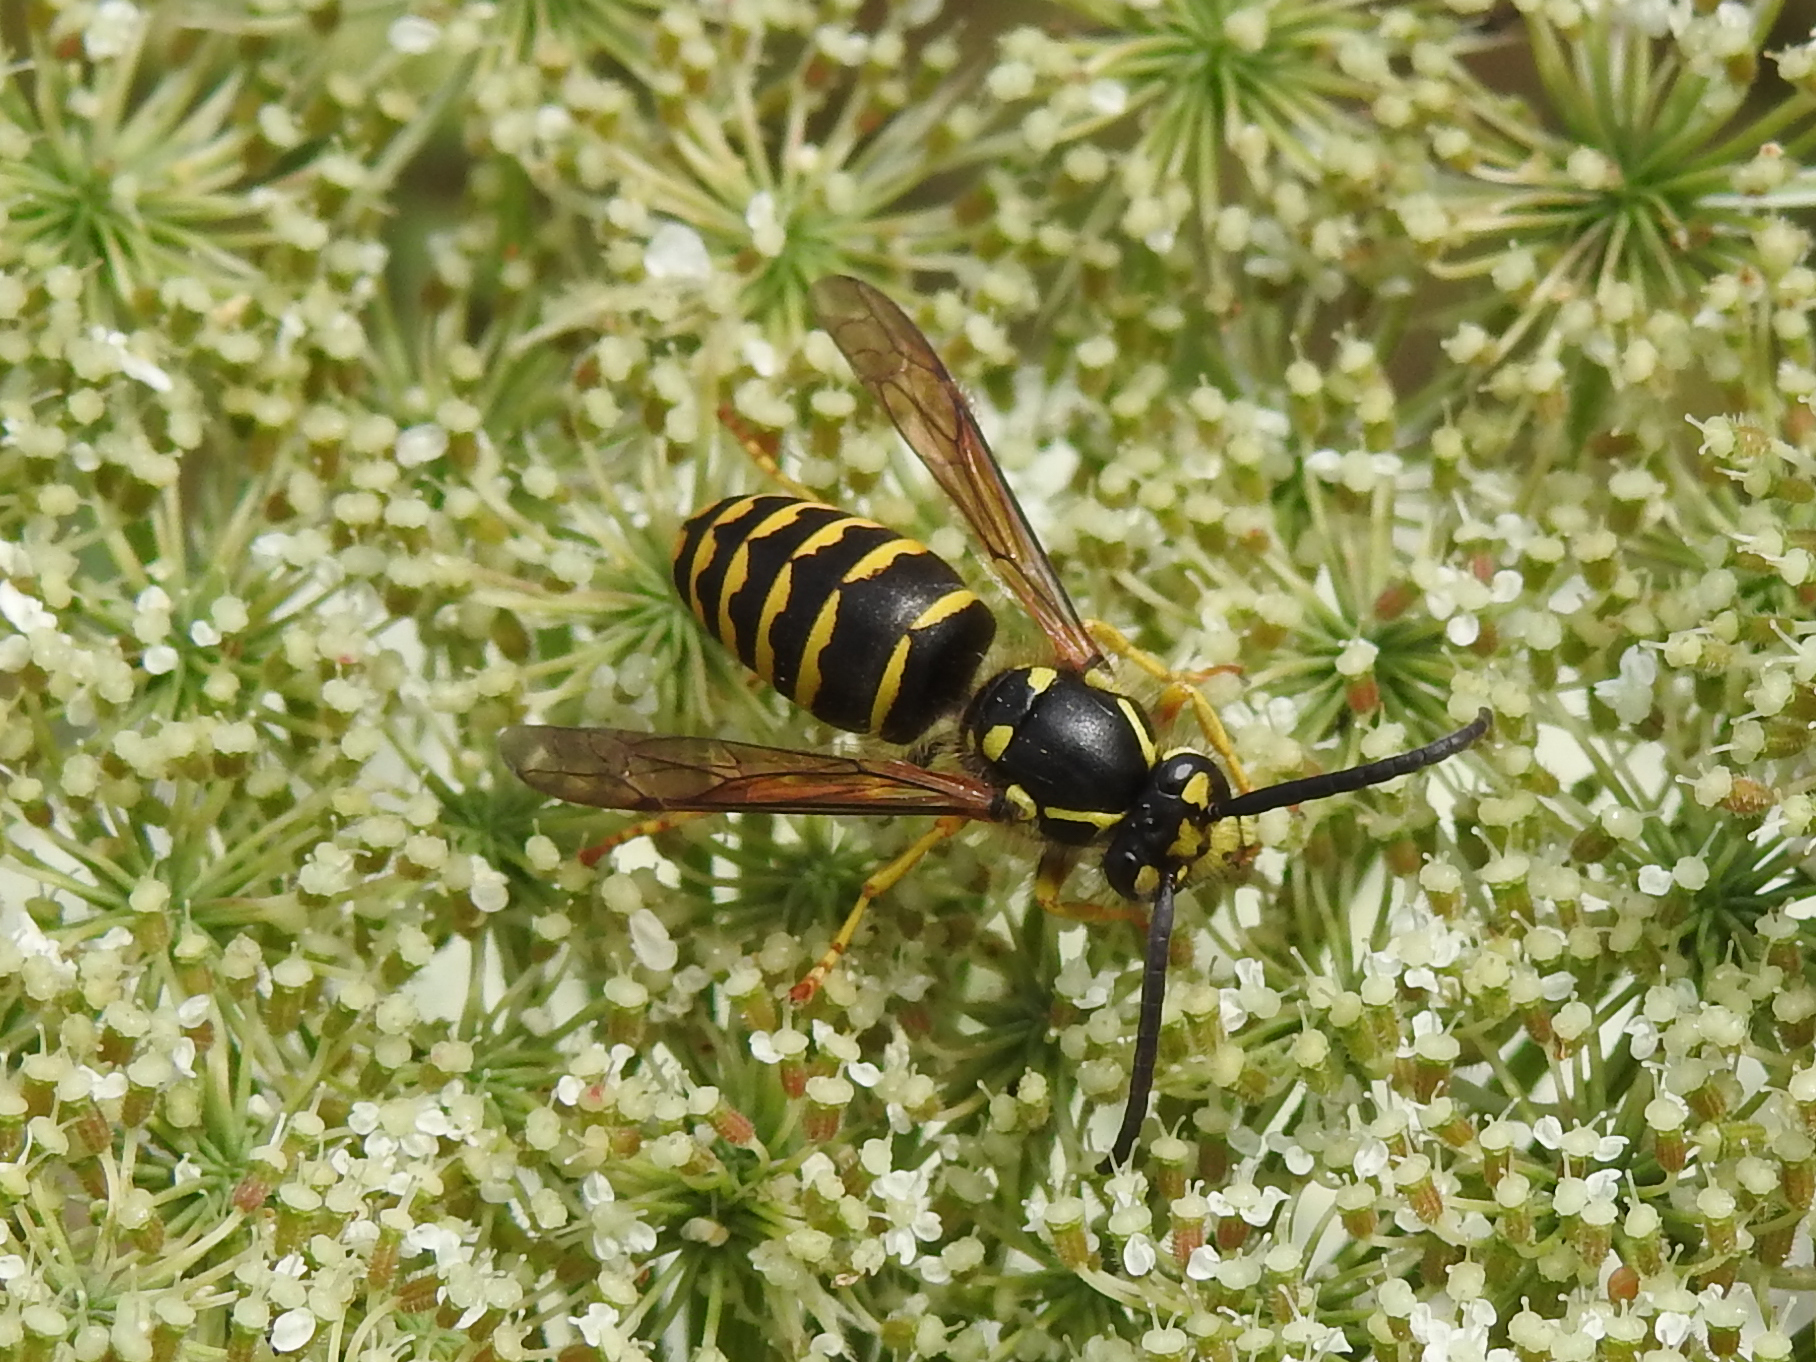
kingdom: Animalia
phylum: Arthropoda
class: Insecta
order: Hymenoptera
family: Vespidae
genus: Dolichovespula
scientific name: Dolichovespula arenaria
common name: Aerial yellowjacket
